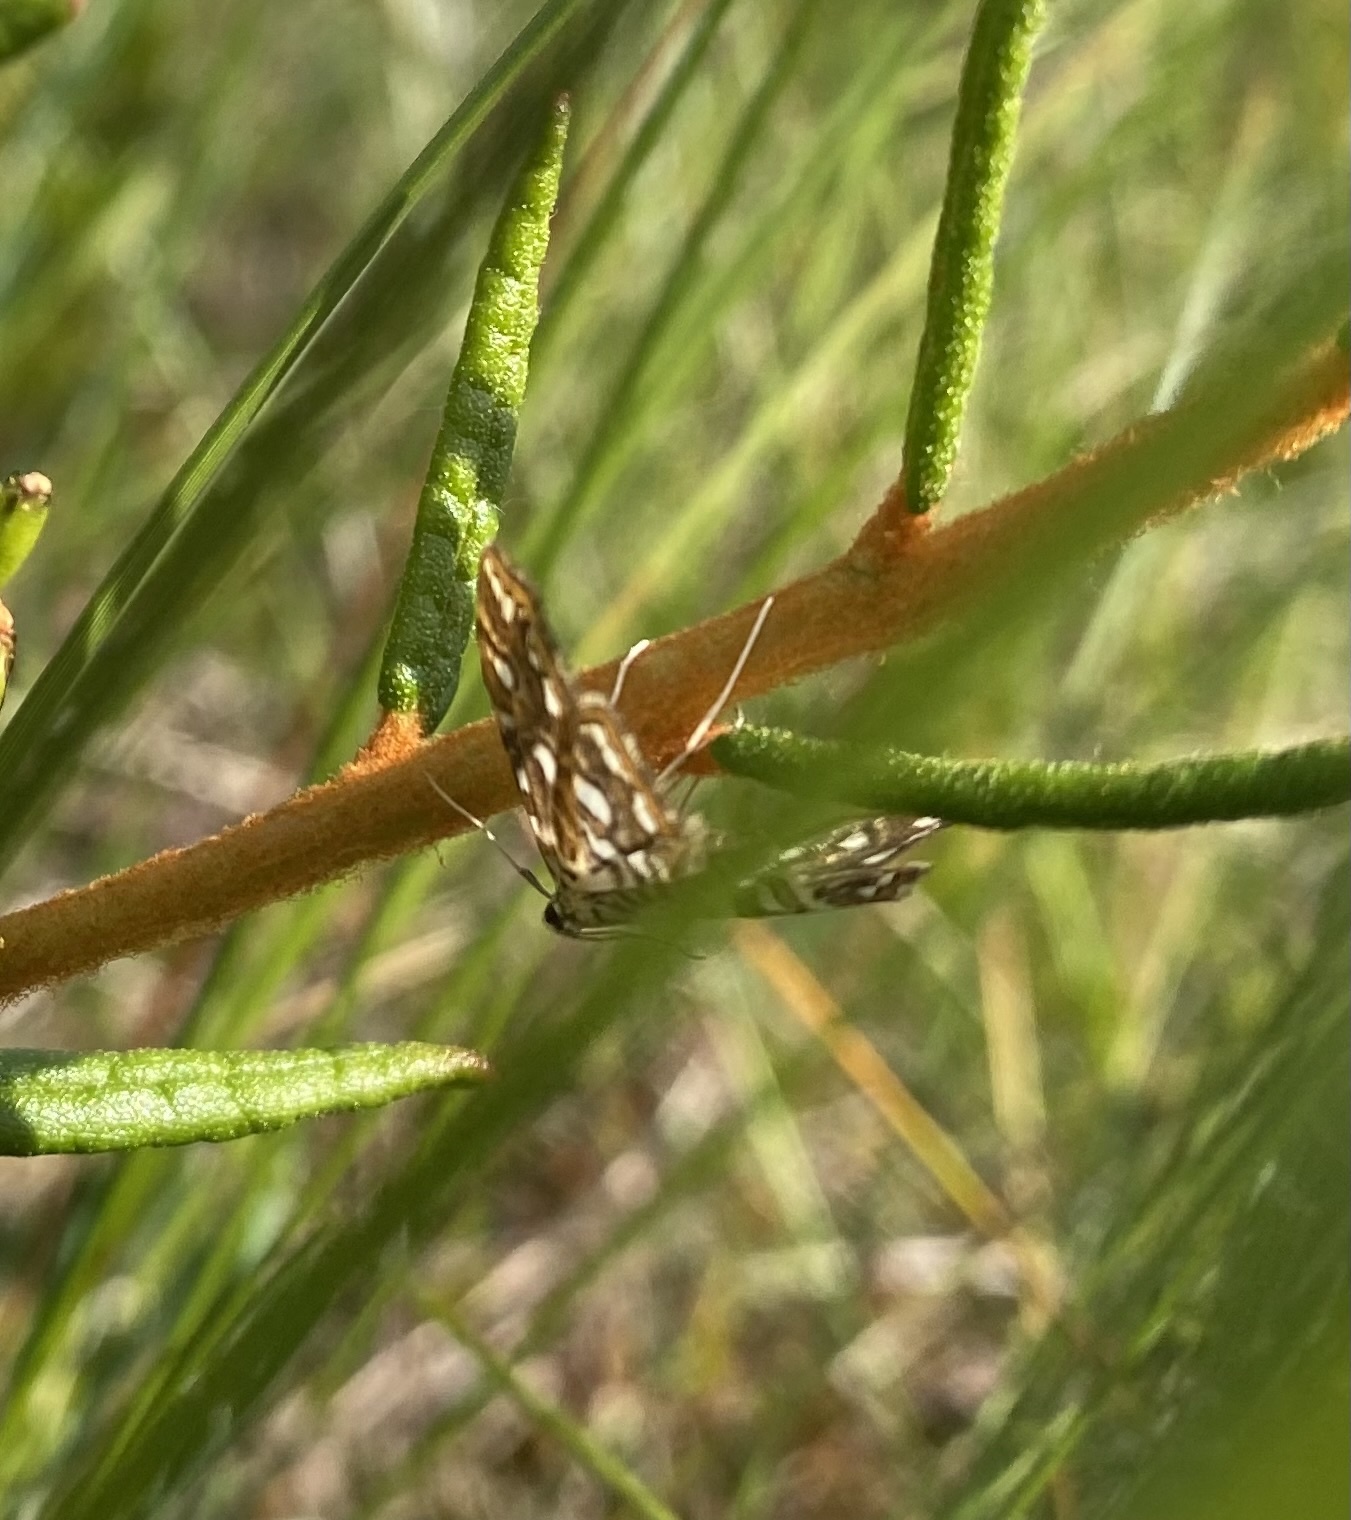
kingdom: Animalia
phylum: Arthropoda
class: Insecta
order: Lepidoptera
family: Crambidae
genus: Elophila
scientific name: Elophila nymphaeata
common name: Brown china-mark
